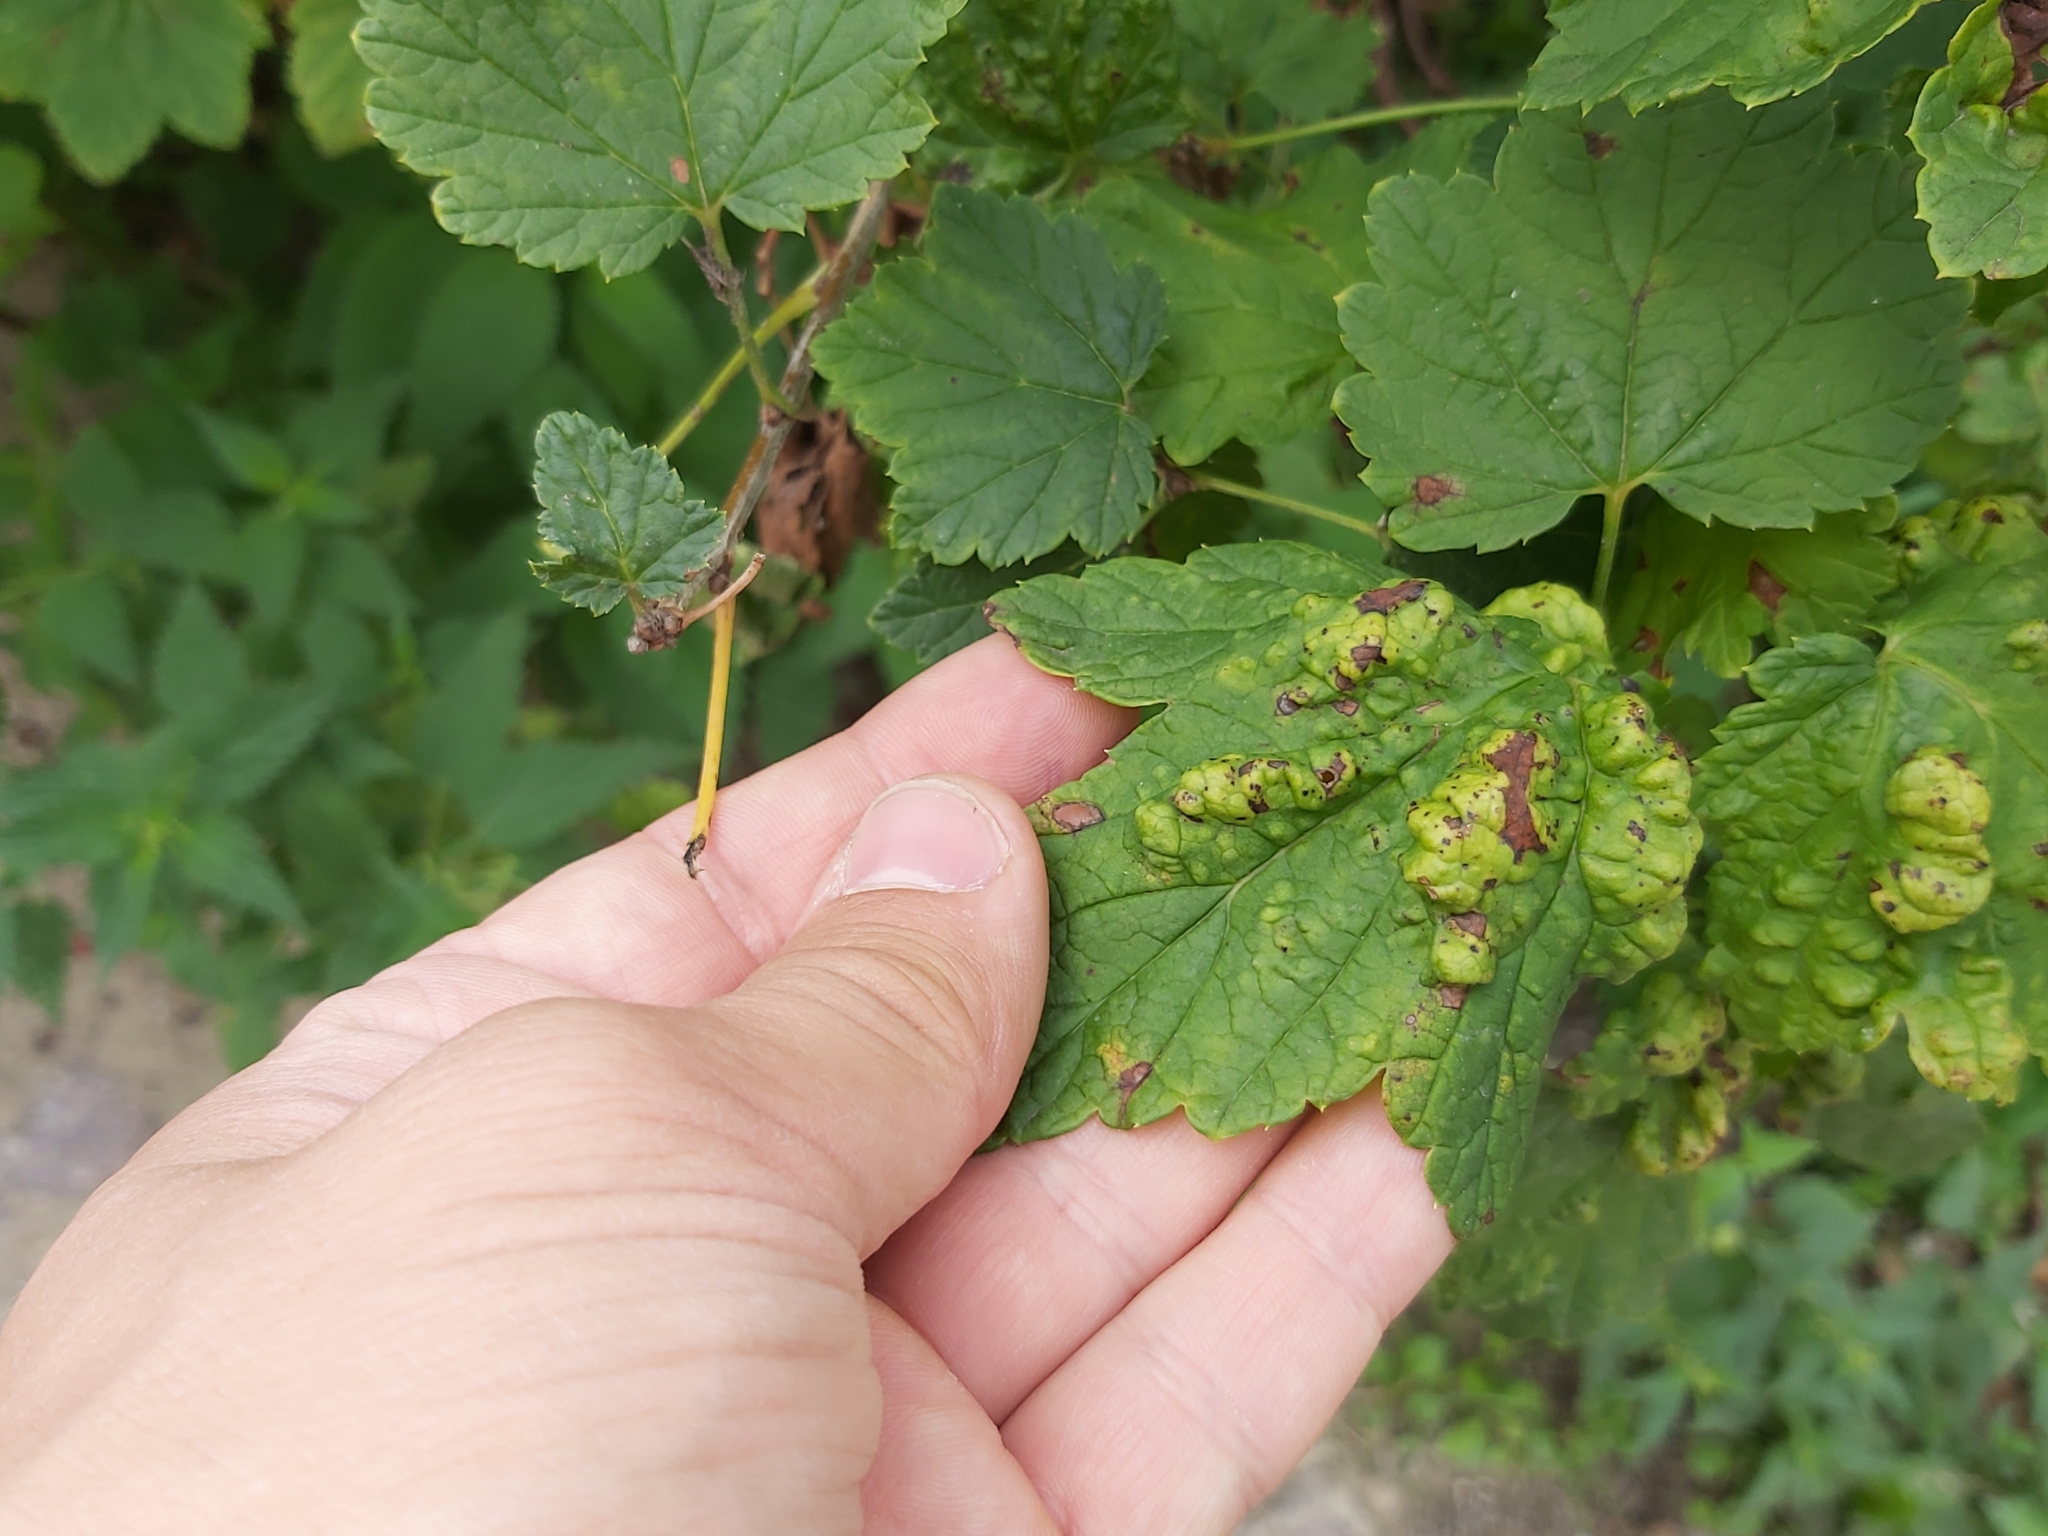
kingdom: Animalia
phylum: Arthropoda
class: Insecta
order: Hemiptera
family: Aphididae
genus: Cryptomyzus
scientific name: Cryptomyzus ribis
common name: Currant aphid
